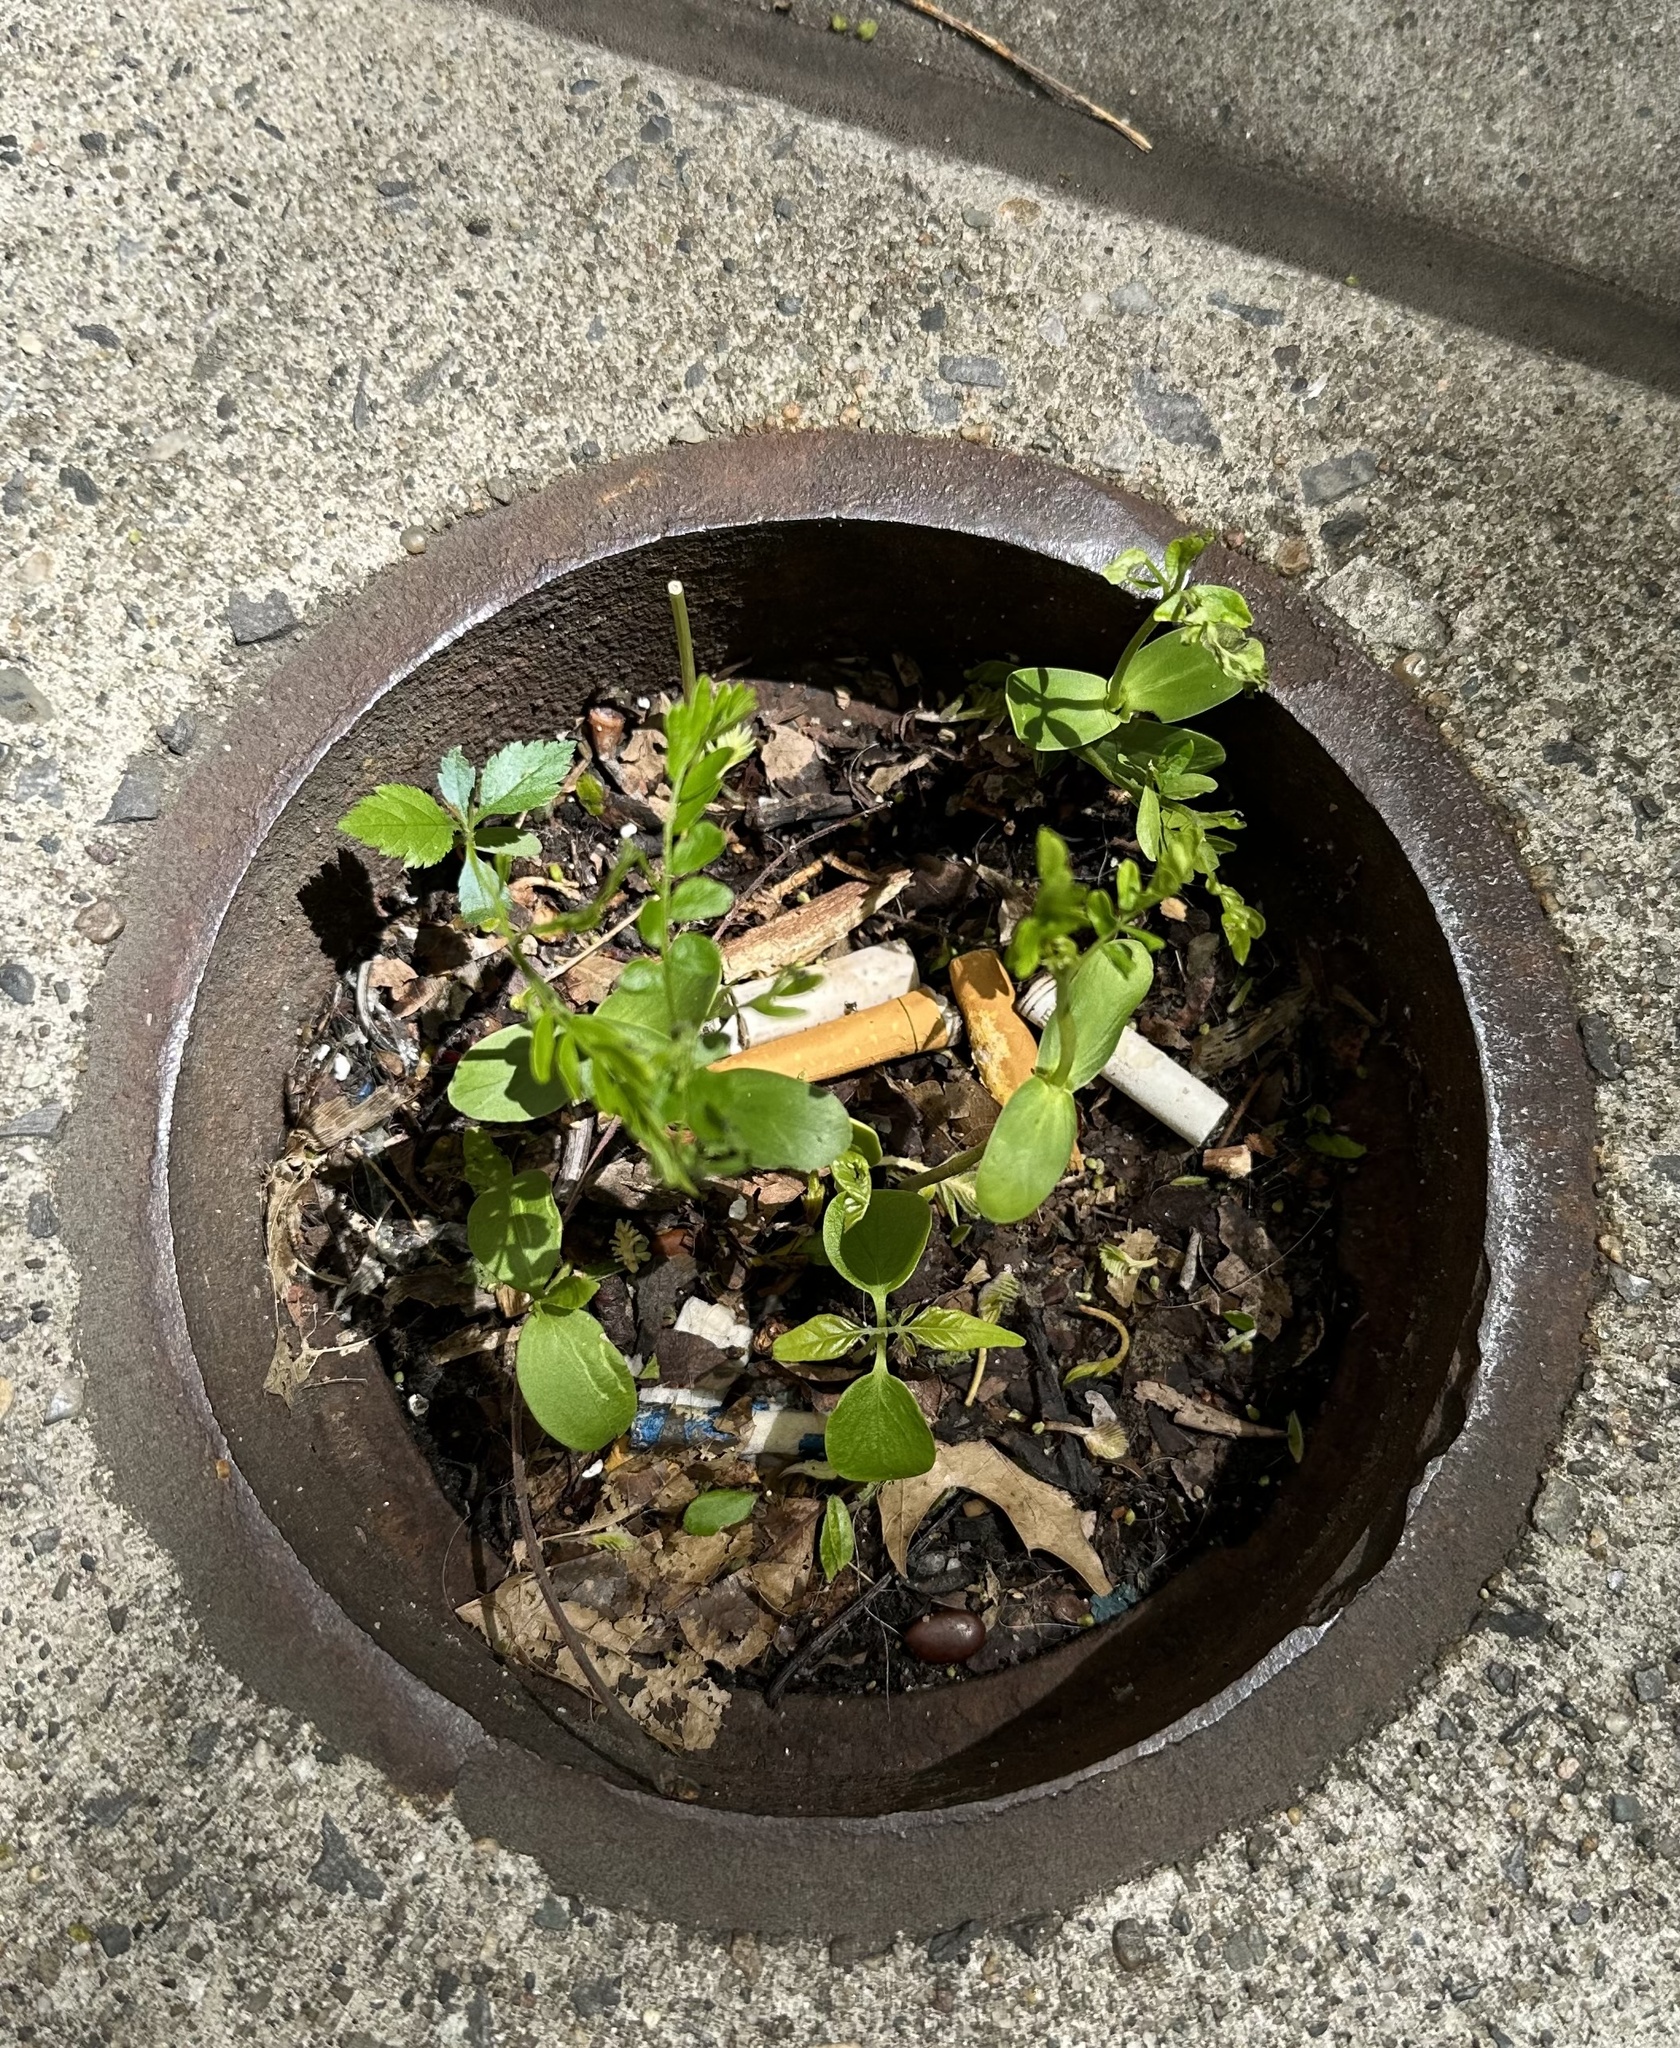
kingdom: Plantae
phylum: Tracheophyta
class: Magnoliopsida
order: Fabales
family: Fabaceae
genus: Gleditsia
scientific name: Gleditsia triacanthos
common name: Common honeylocust
